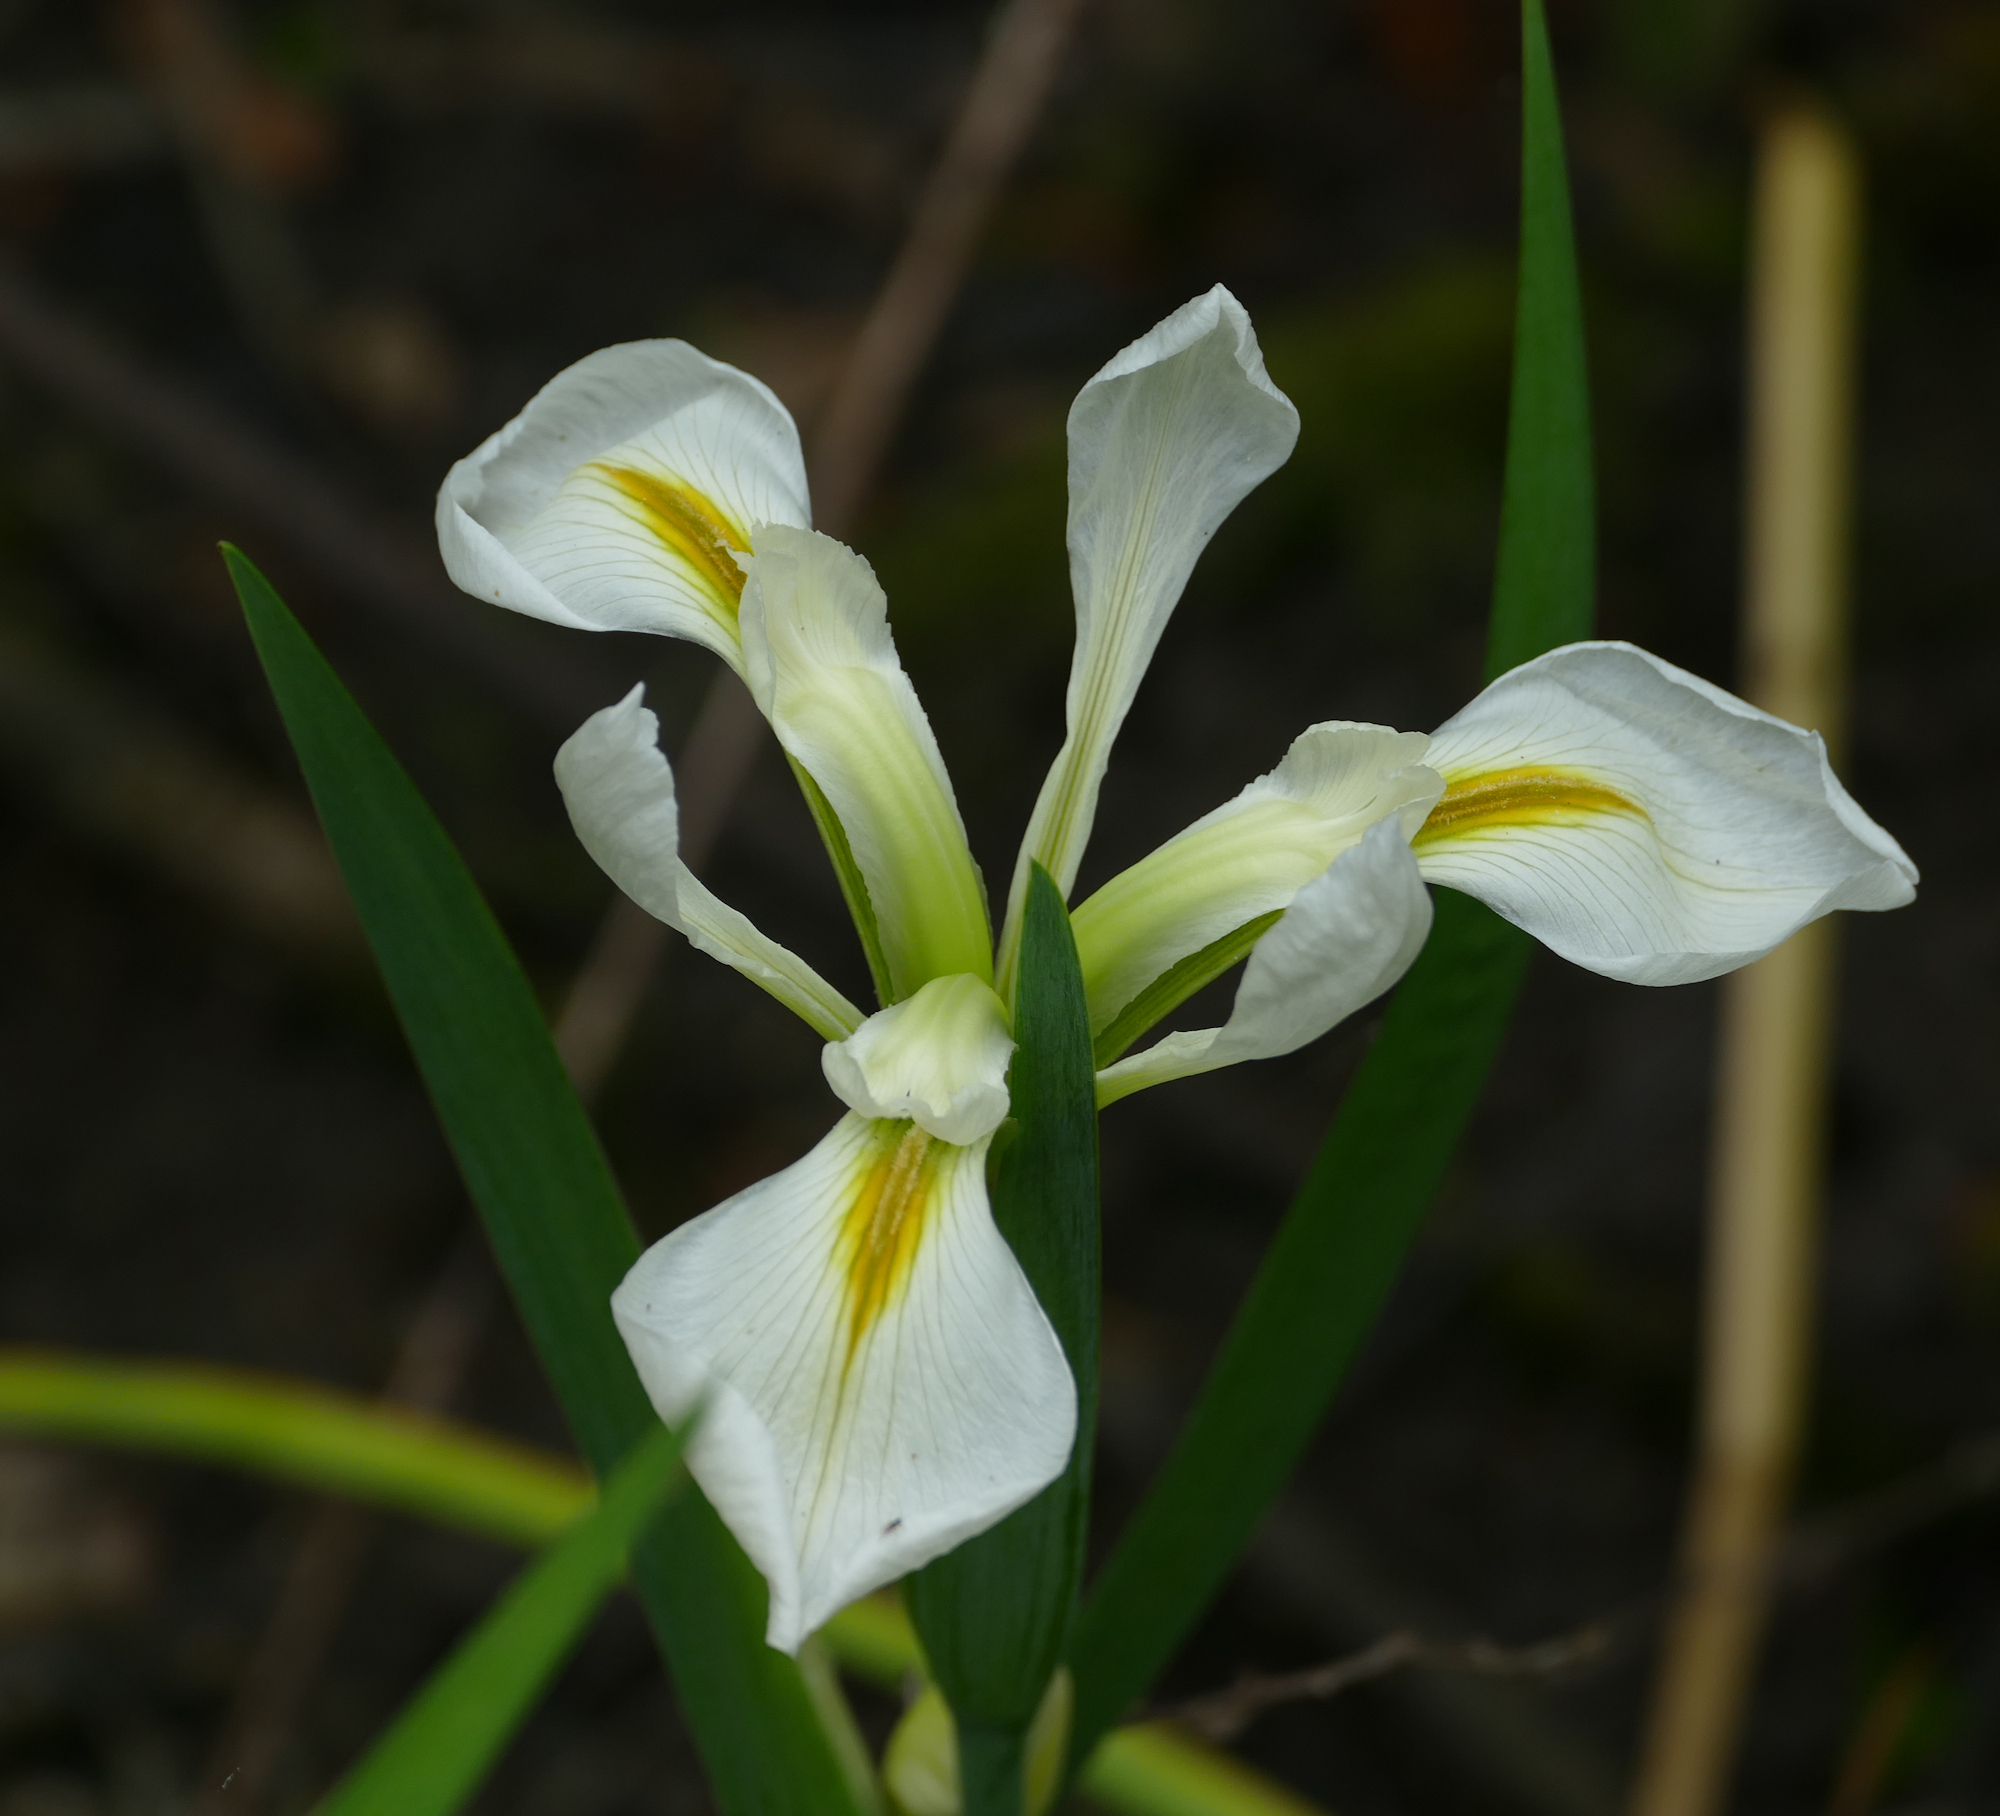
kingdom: Plantae
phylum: Tracheophyta
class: Liliopsida
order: Asparagales
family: Iridaceae
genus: Iris
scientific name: Iris brevicaulis
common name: Zigzag iris
